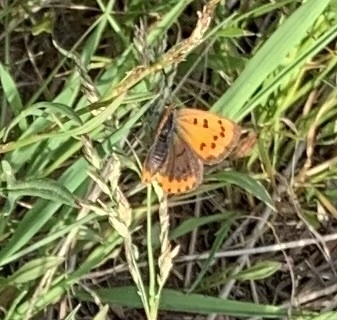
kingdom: Animalia
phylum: Arthropoda
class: Insecta
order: Lepidoptera
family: Lycaenidae
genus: Lycaena
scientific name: Lycaena phlaeas
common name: Small copper
